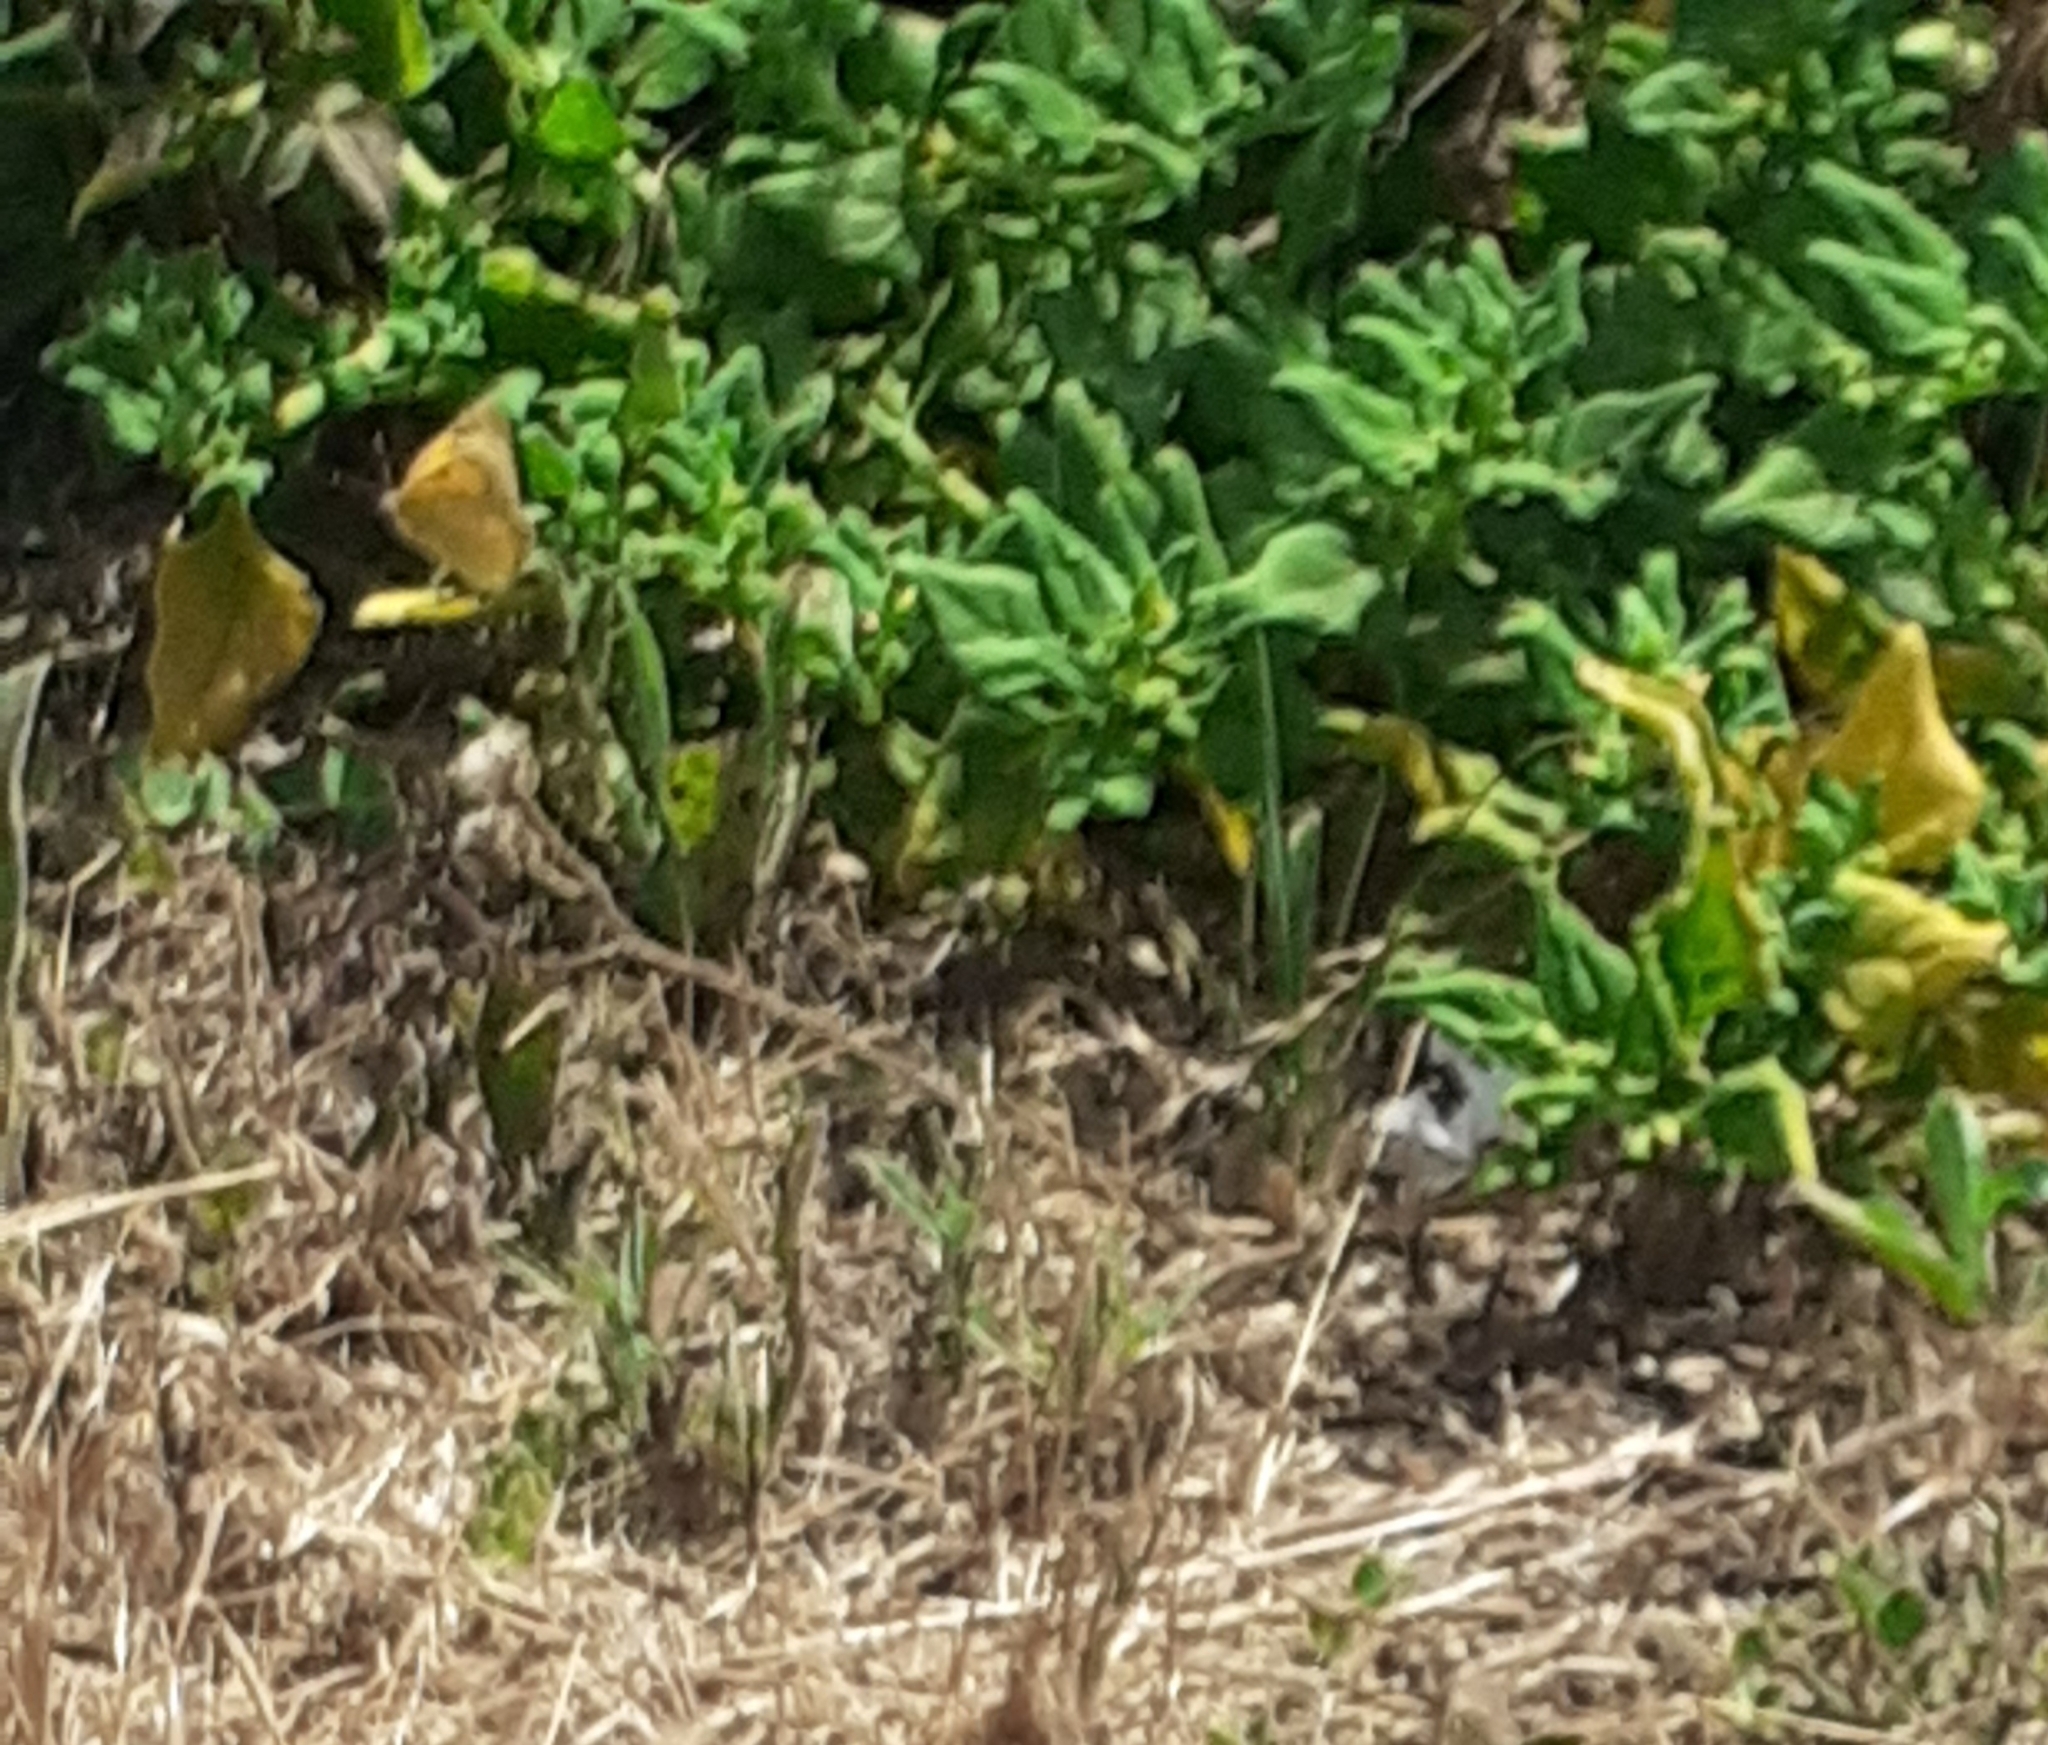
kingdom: Animalia
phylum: Arthropoda
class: Insecta
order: Lepidoptera
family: Pieridae
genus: Colias
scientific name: Colias croceus
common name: Clouded yellow
